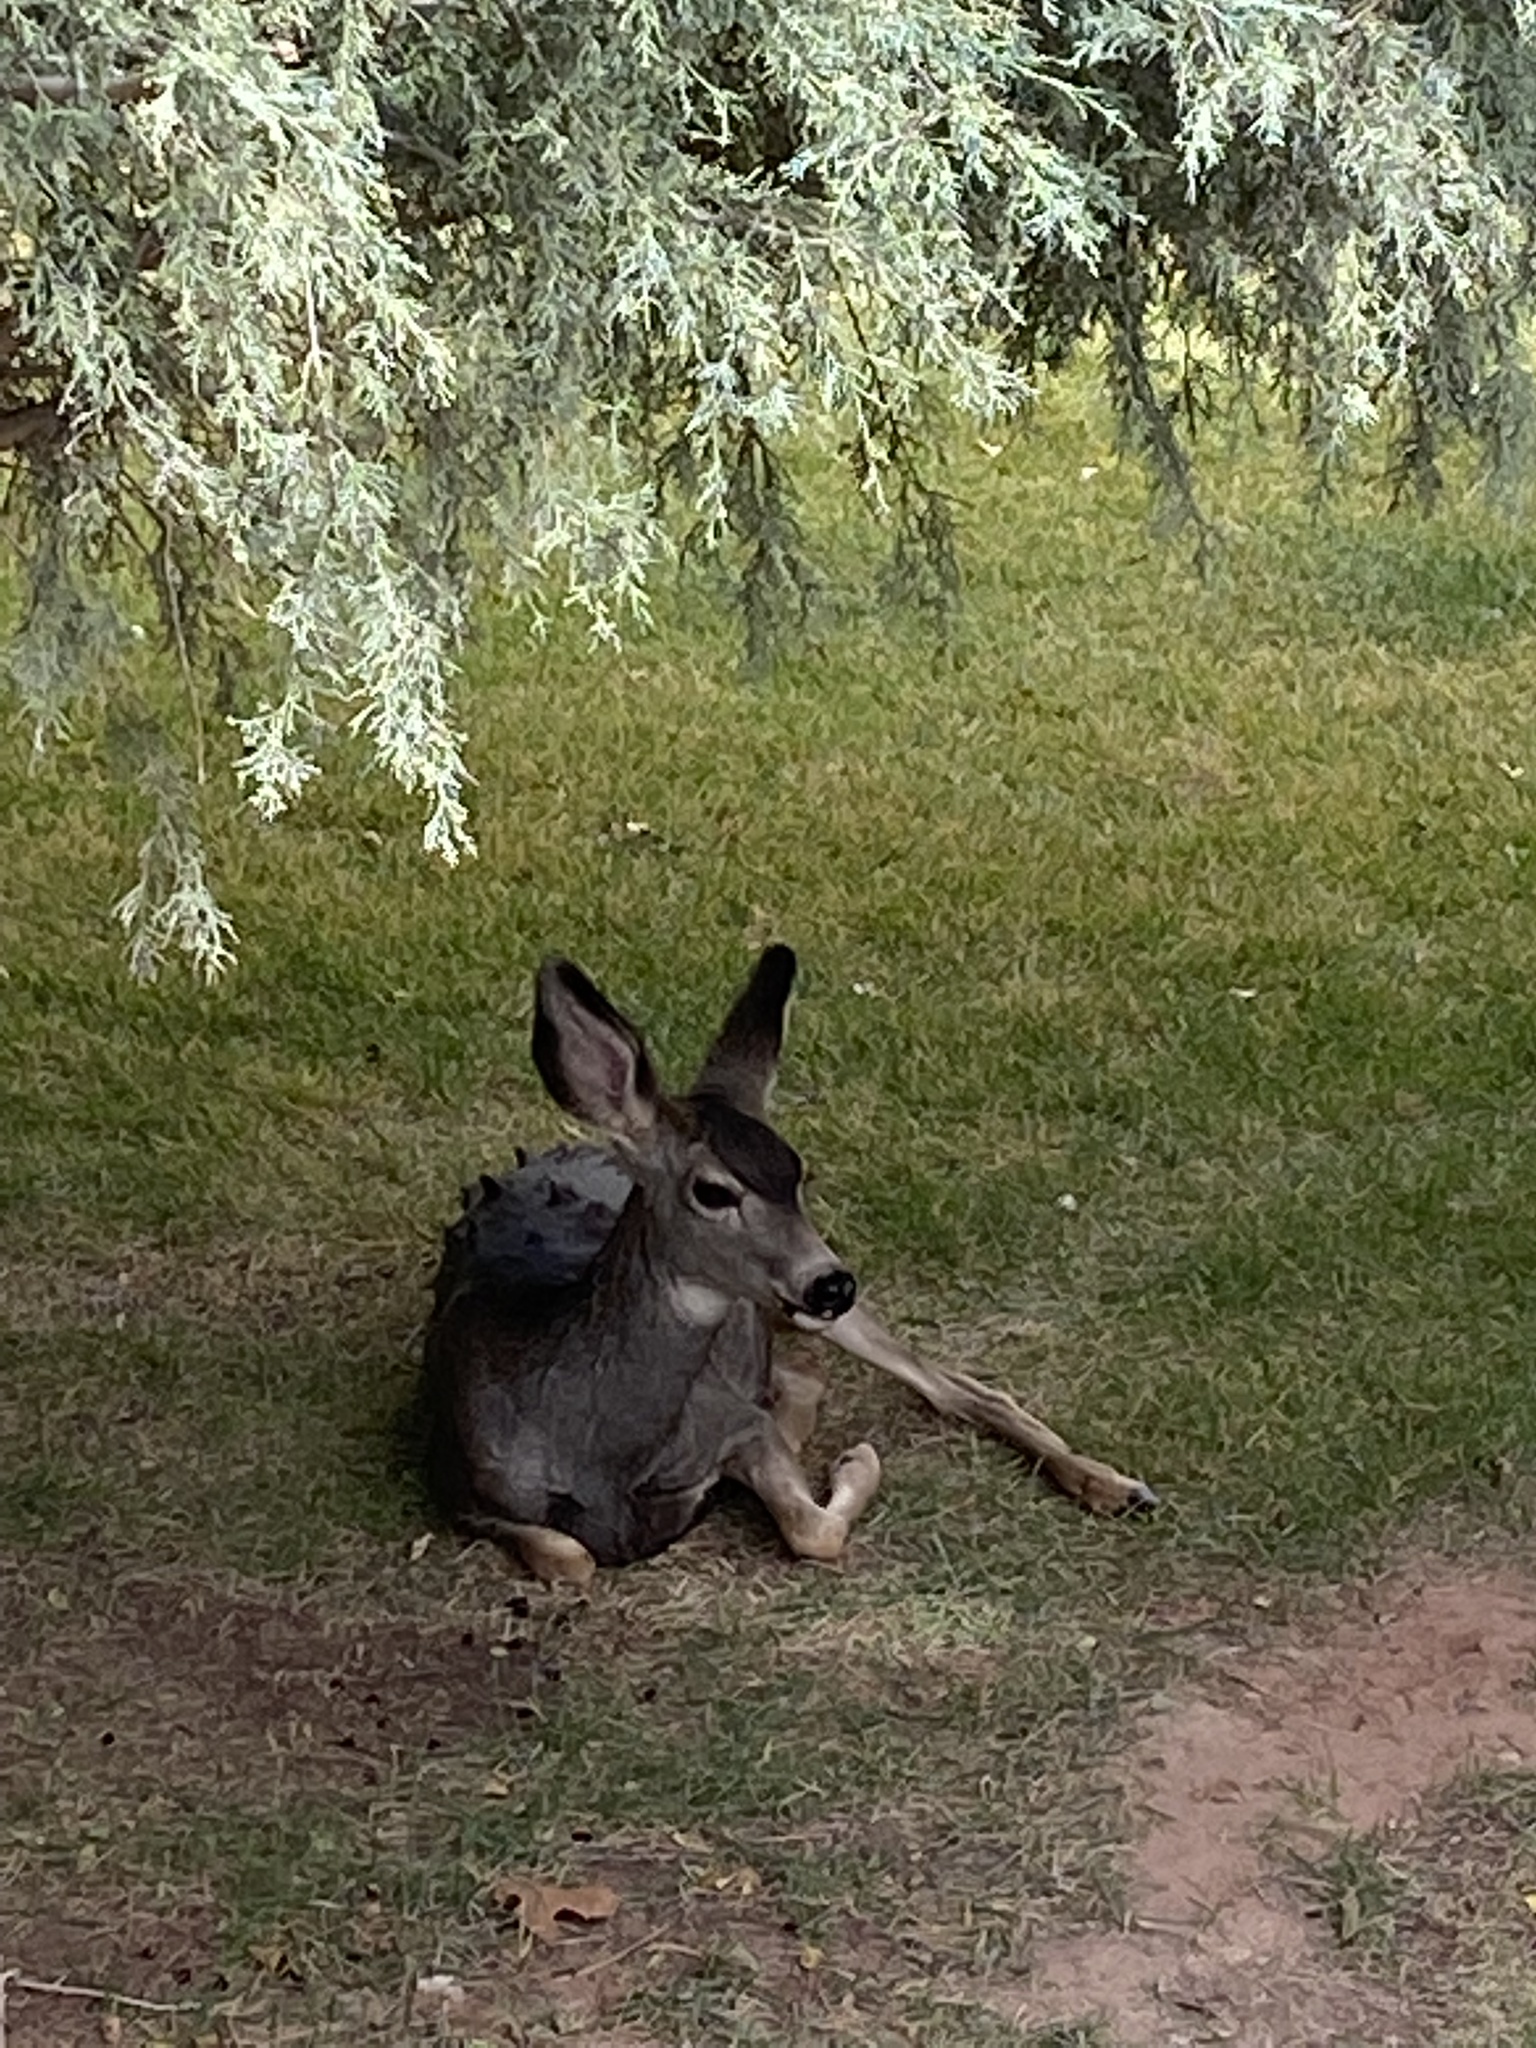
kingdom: Animalia
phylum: Chordata
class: Mammalia
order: Artiodactyla
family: Cervidae
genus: Odocoileus
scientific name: Odocoileus hemionus
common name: Mule deer
